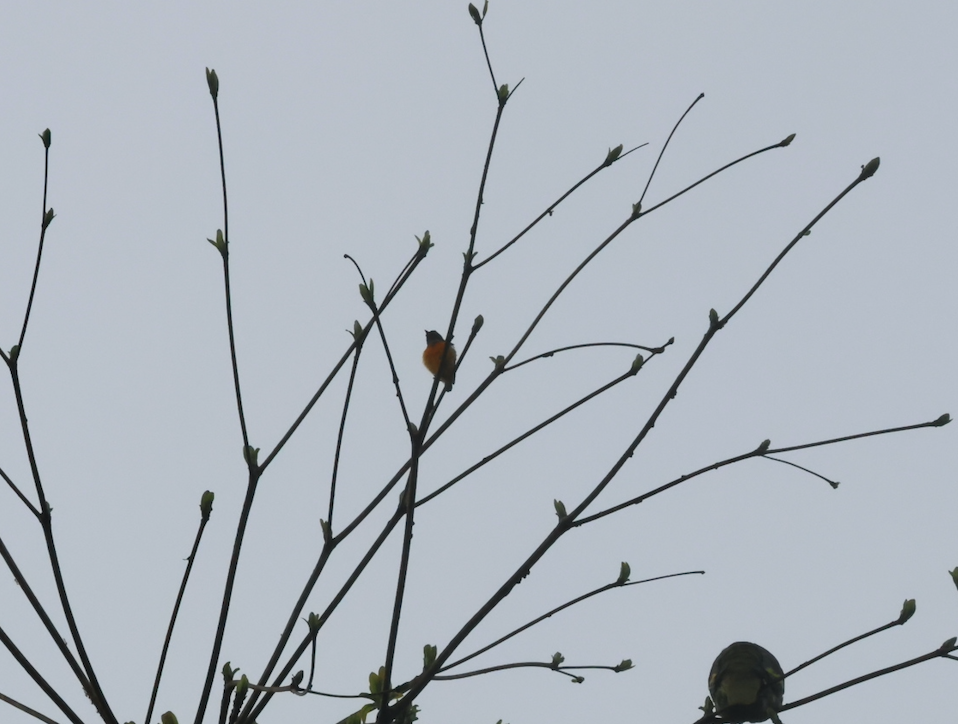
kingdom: Animalia
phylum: Chordata
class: Aves
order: Passeriformes
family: Dicaeidae
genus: Dicaeum
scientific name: Dicaeum trigonostigma
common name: Orange-bellied flowerpecker
